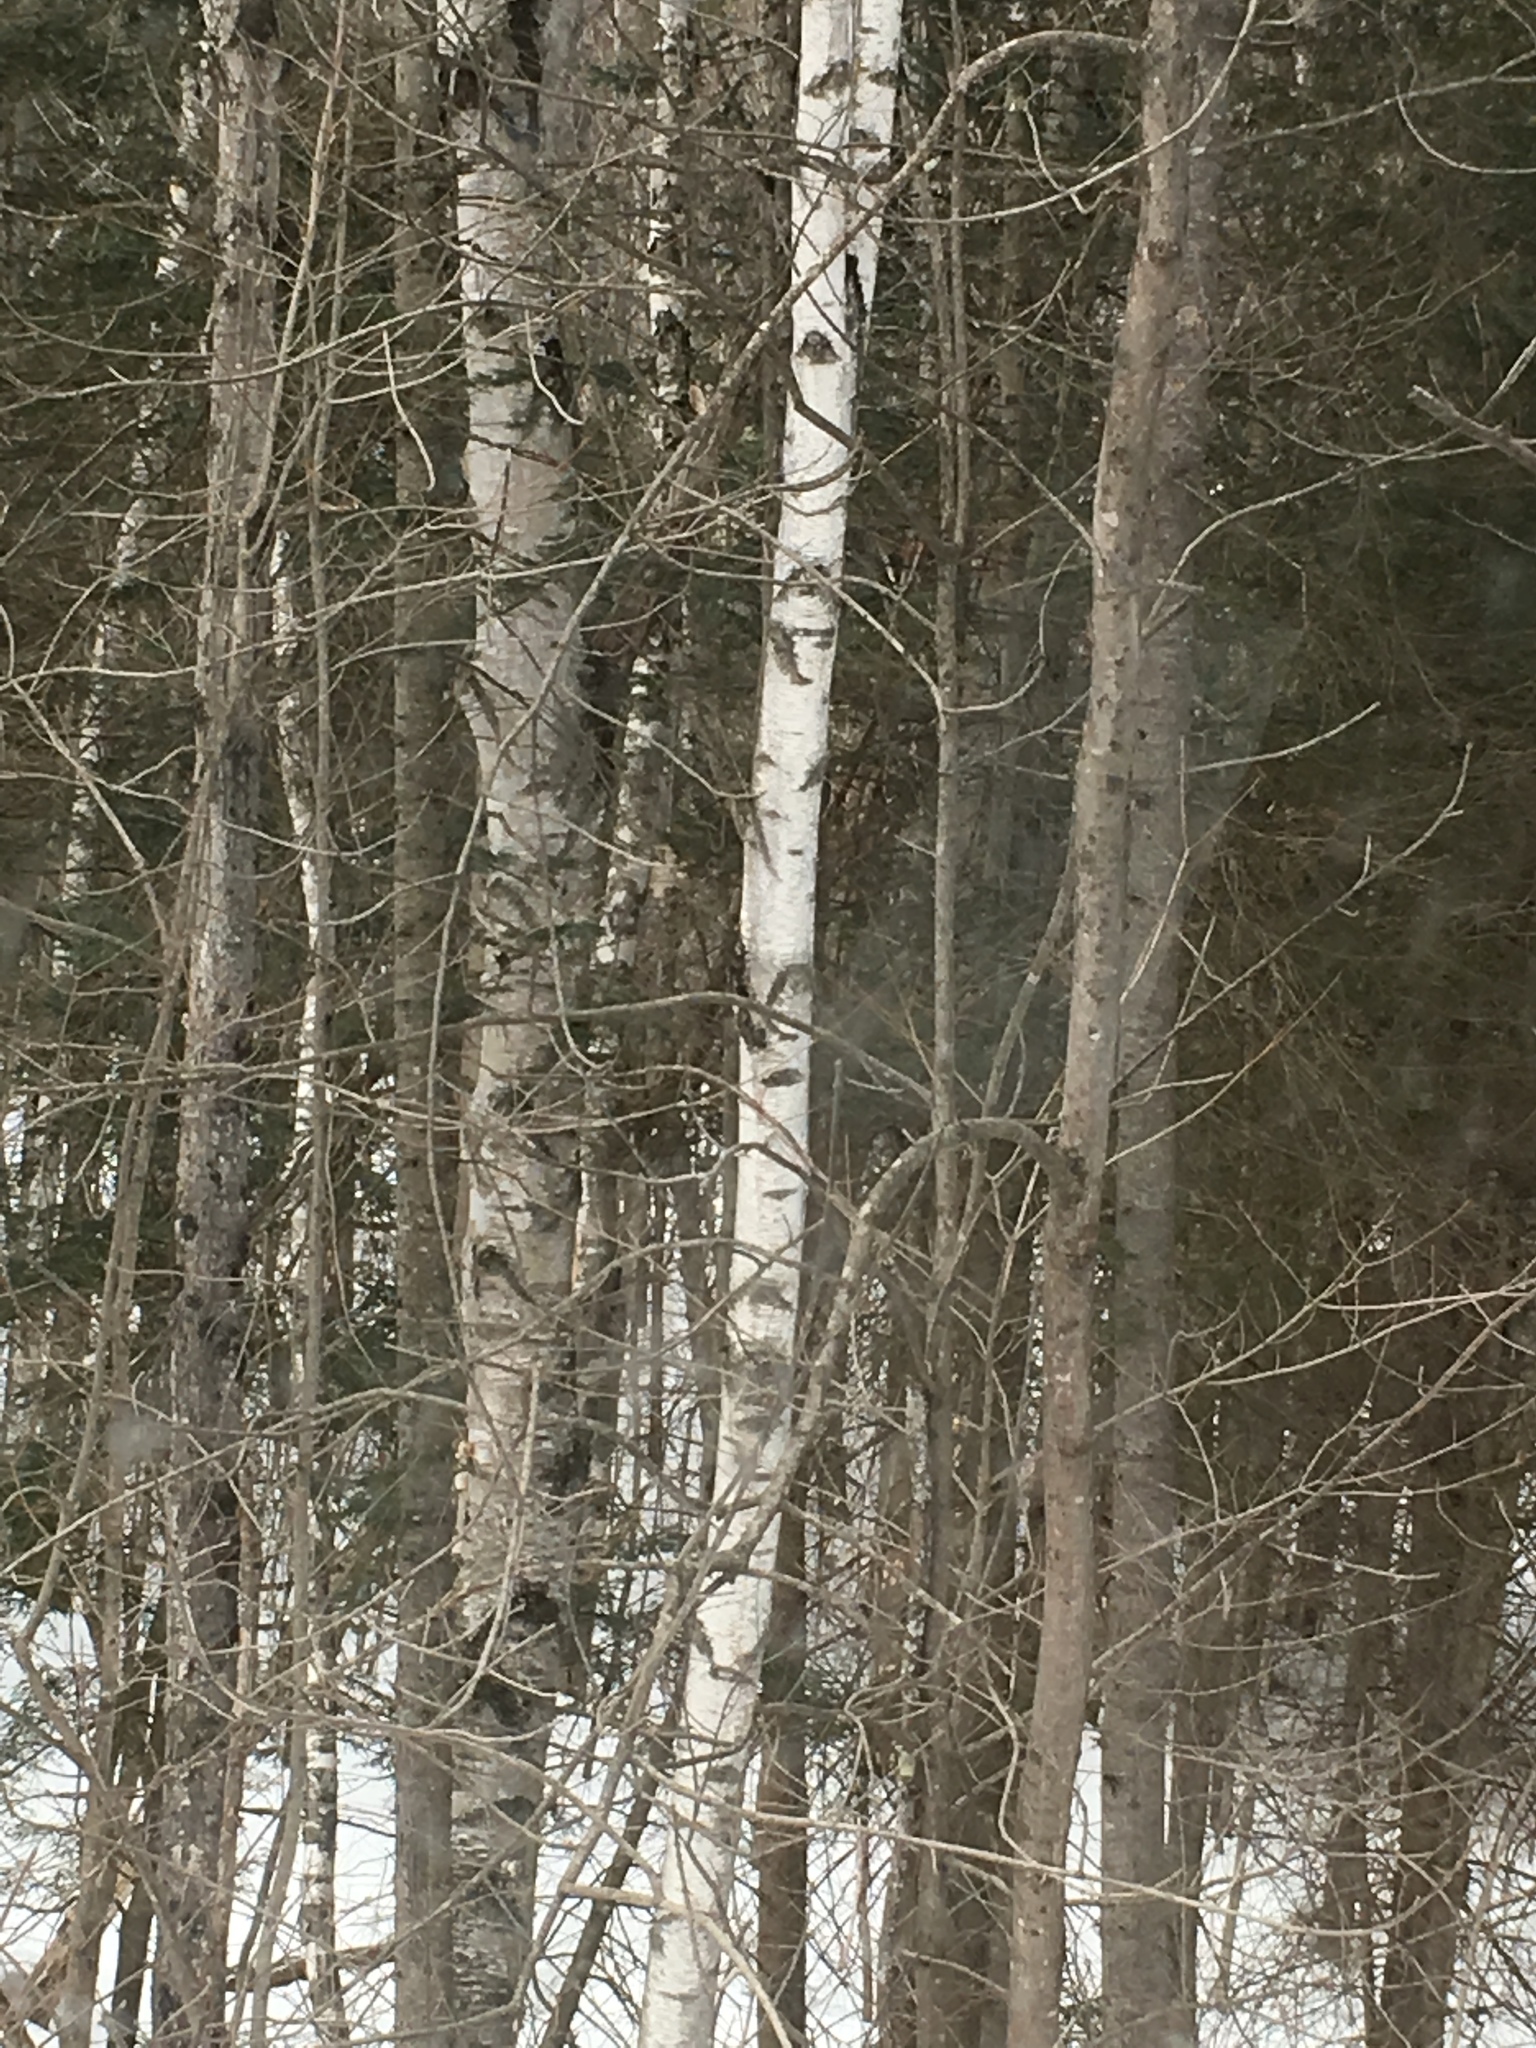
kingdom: Plantae
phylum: Tracheophyta
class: Magnoliopsida
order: Fagales
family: Betulaceae
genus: Betula
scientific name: Betula populifolia
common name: Fire birch
